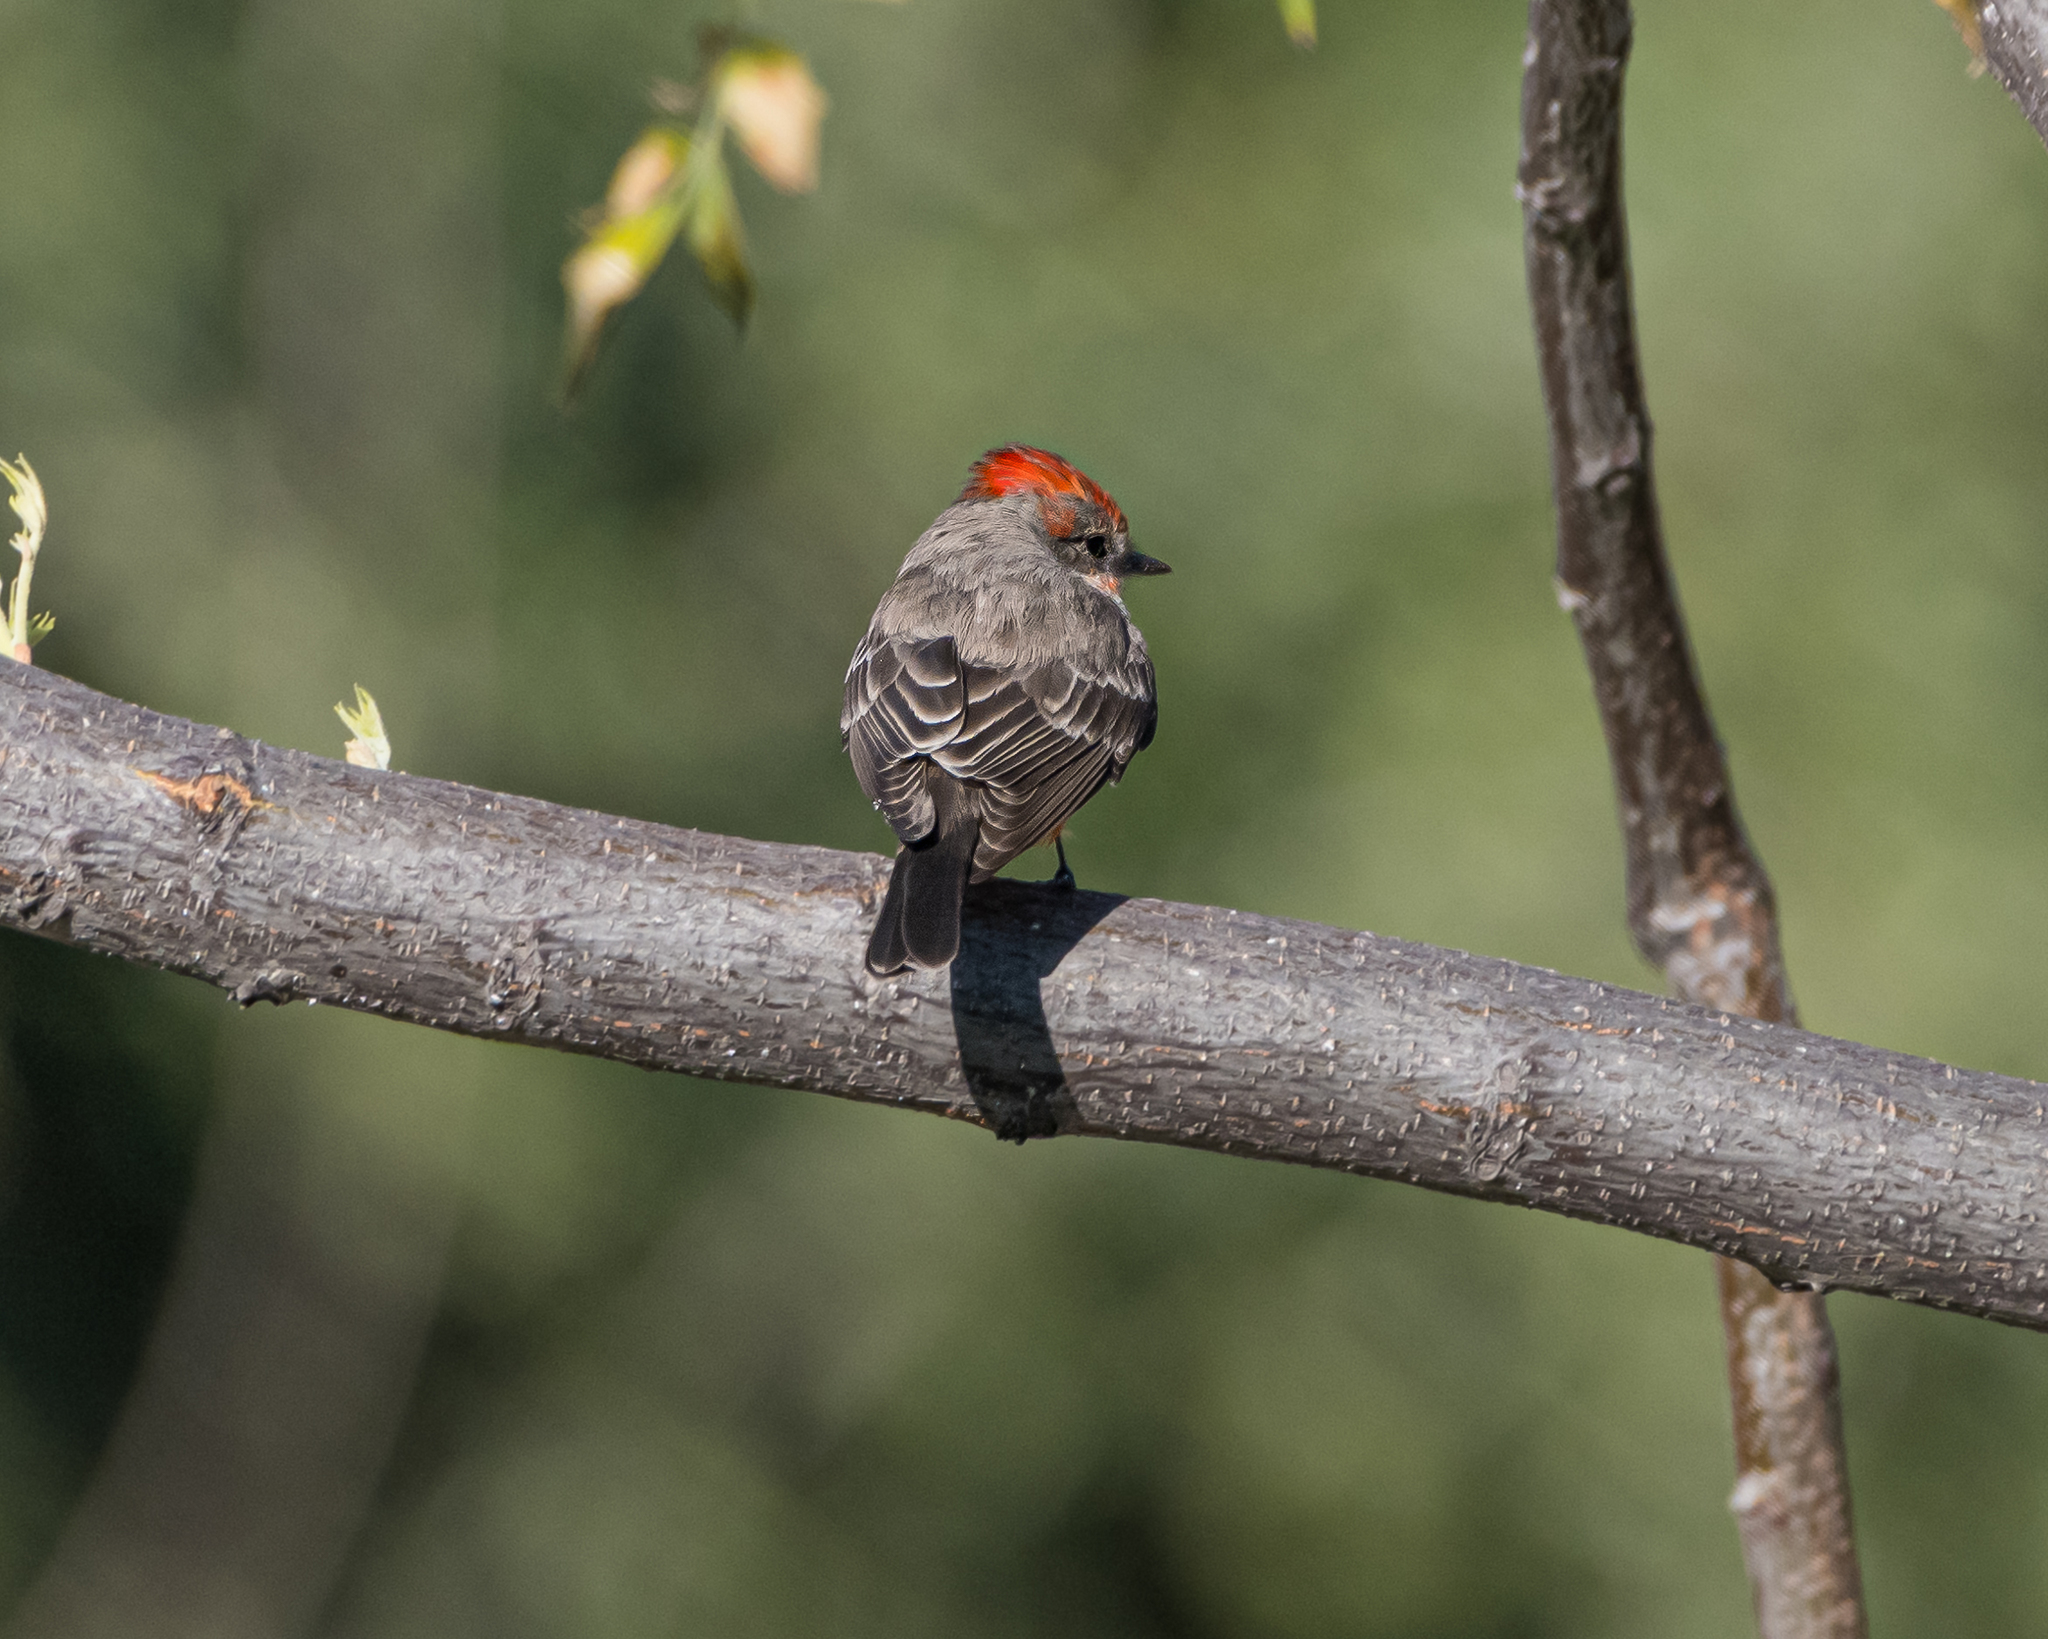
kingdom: Animalia
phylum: Chordata
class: Aves
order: Passeriformes
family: Tyrannidae
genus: Pyrocephalus
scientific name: Pyrocephalus rubinus
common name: Vermilion flycatcher
